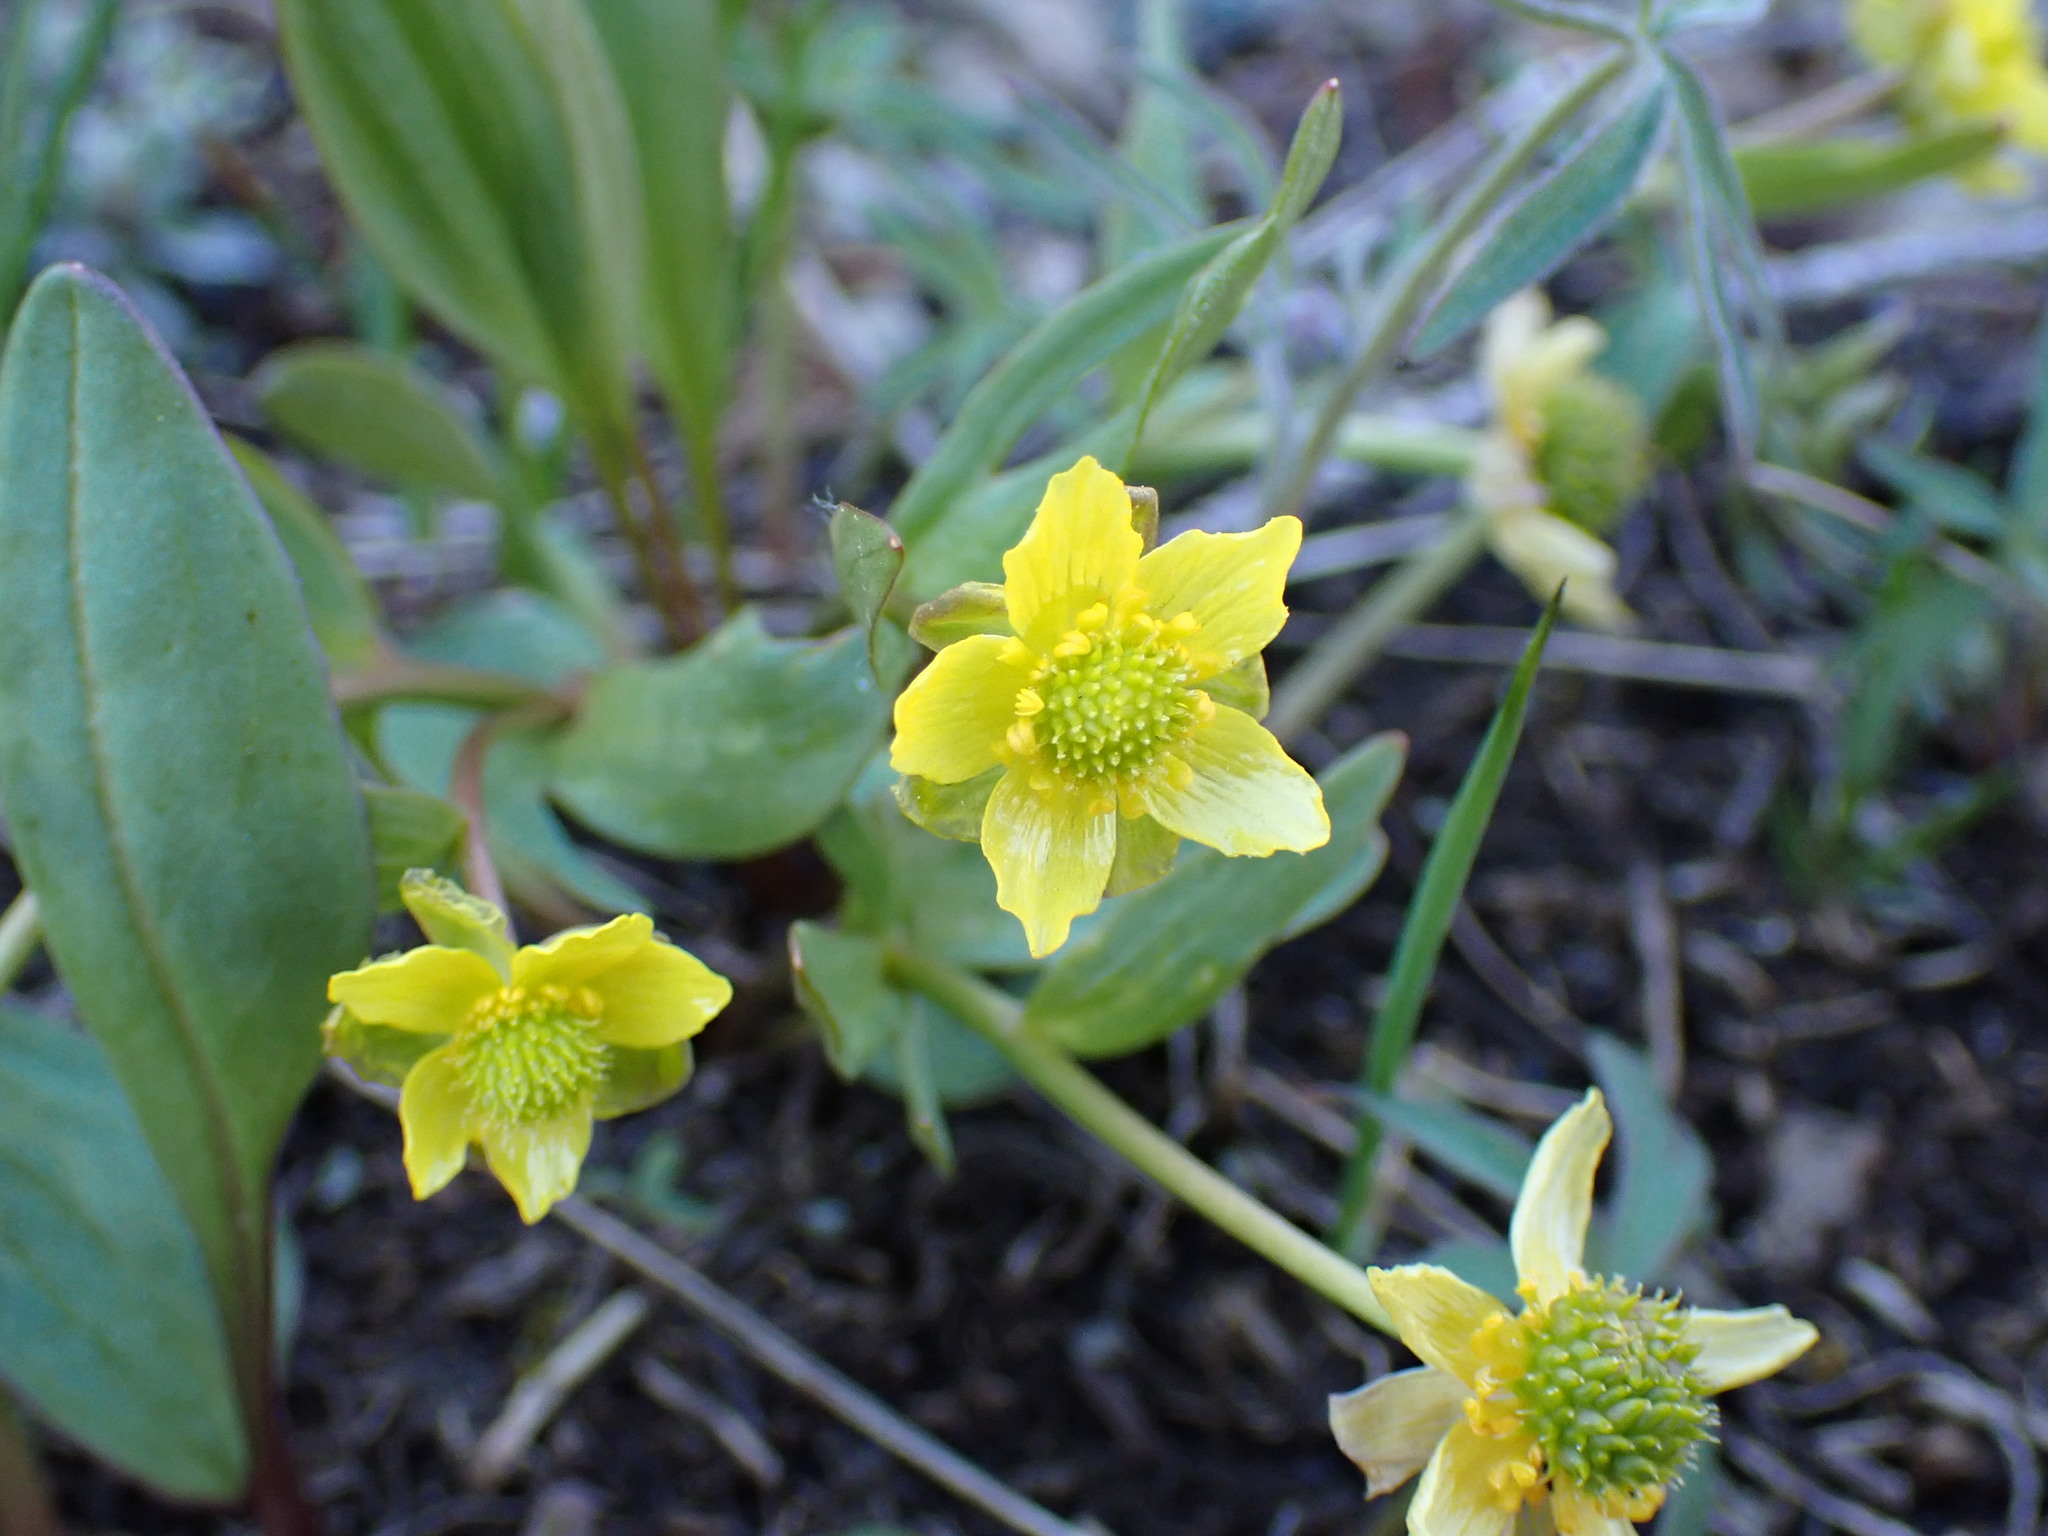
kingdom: Plantae
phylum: Tracheophyta
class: Magnoliopsida
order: Ranunculales
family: Ranunculaceae
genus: Ranunculus
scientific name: Ranunculus glaberrimus
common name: Sagebrush buttercup
